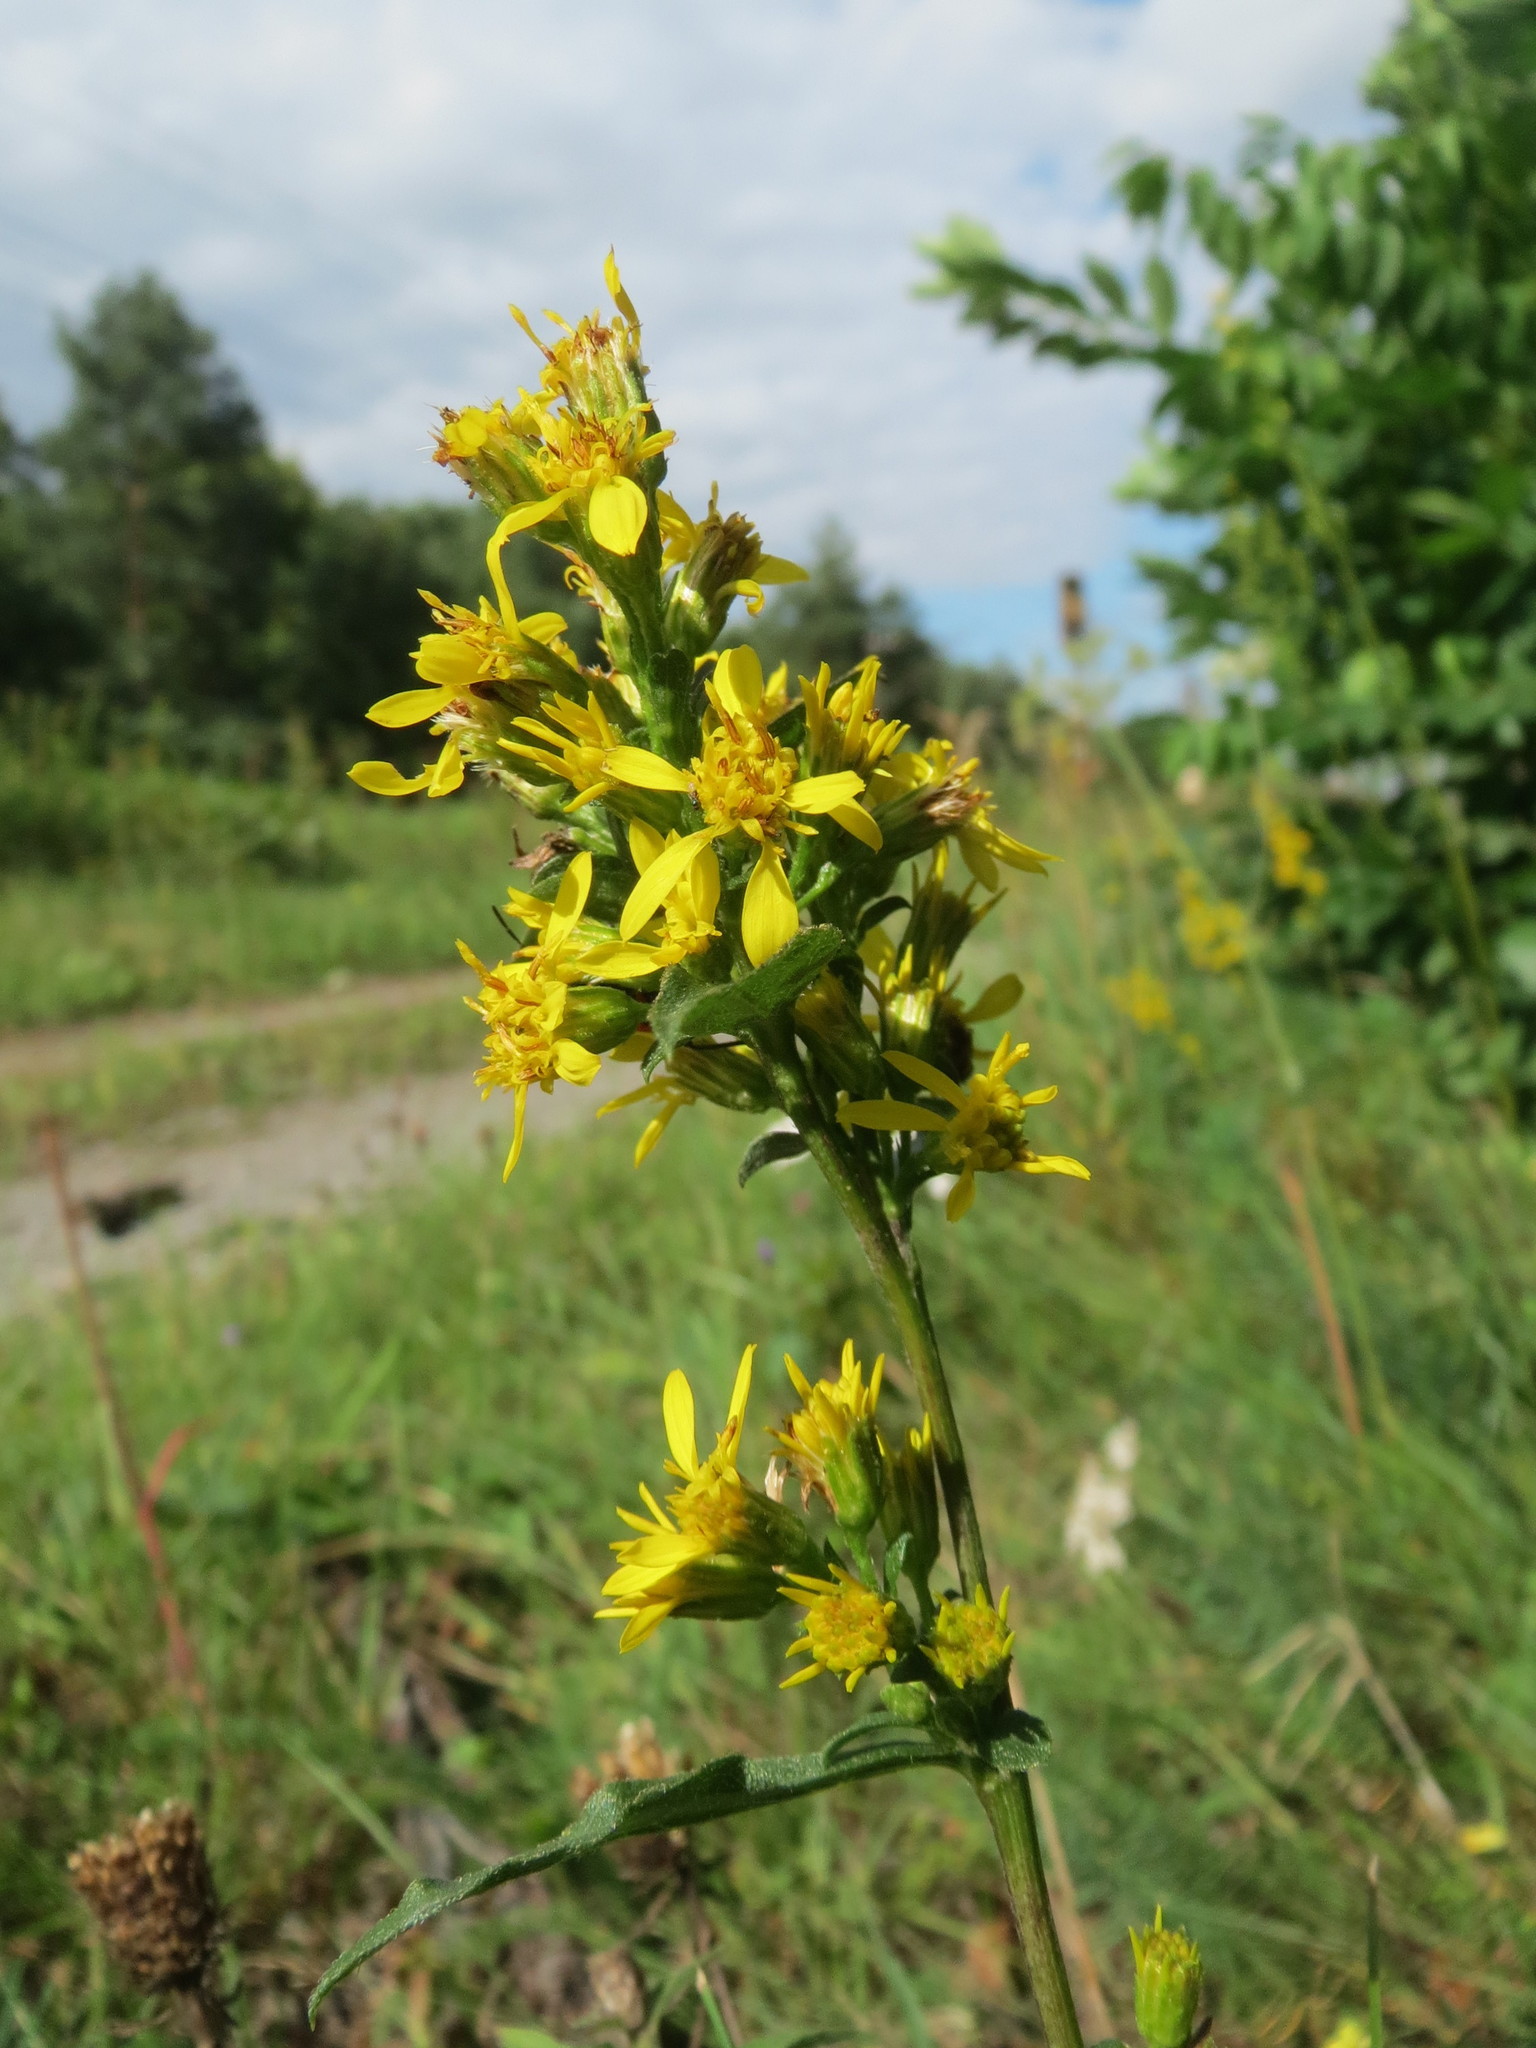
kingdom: Plantae
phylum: Tracheophyta
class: Magnoliopsida
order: Asterales
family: Asteraceae
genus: Solidago
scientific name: Solidago virgaurea
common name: Goldenrod
